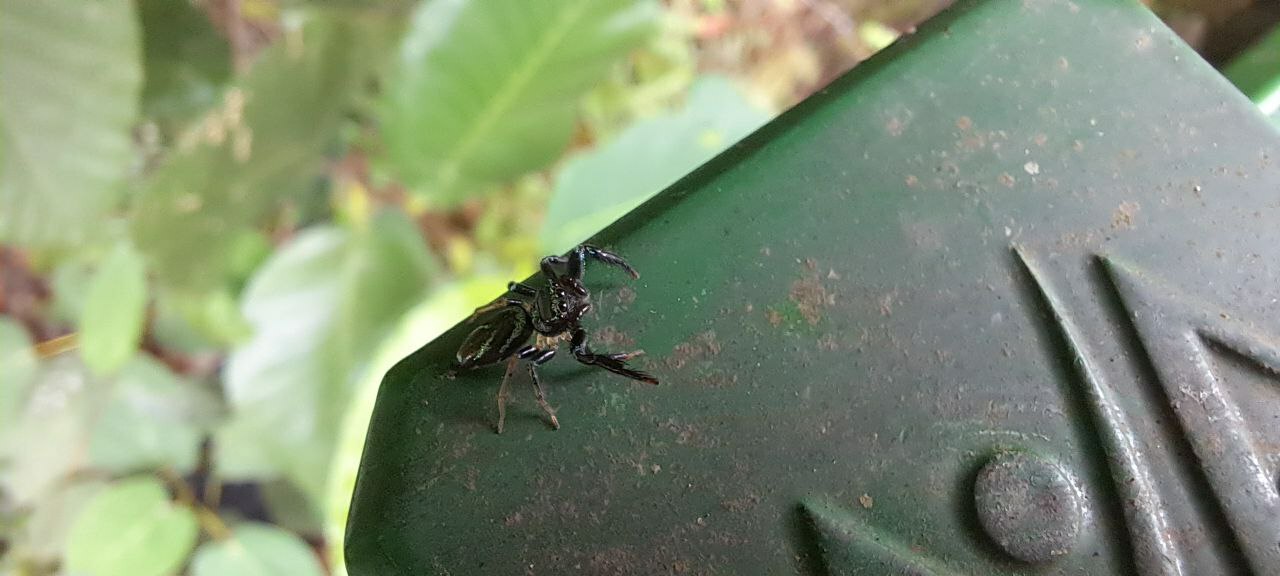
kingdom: Animalia
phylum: Arthropoda
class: Arachnida
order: Araneae
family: Salticidae
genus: Thiania
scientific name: Thiania bhamoensis
